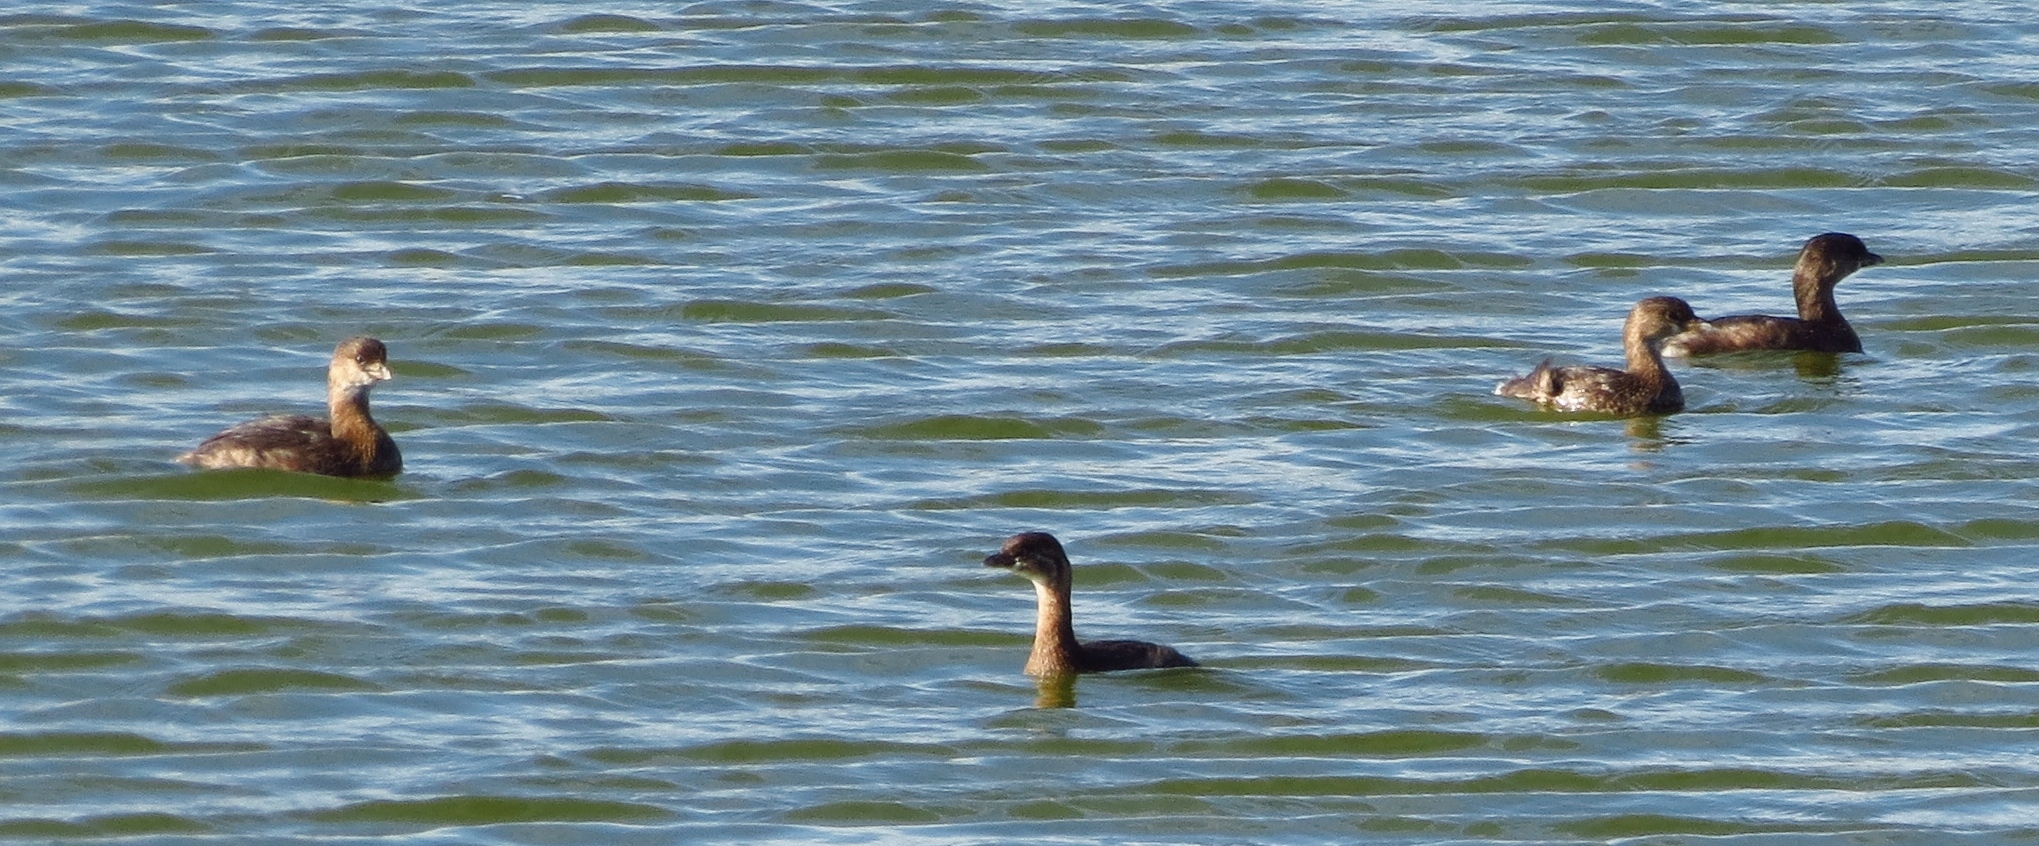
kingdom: Animalia
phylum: Chordata
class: Aves
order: Podicipediformes
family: Podicipedidae
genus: Podilymbus
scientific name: Podilymbus podiceps
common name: Pied-billed grebe
